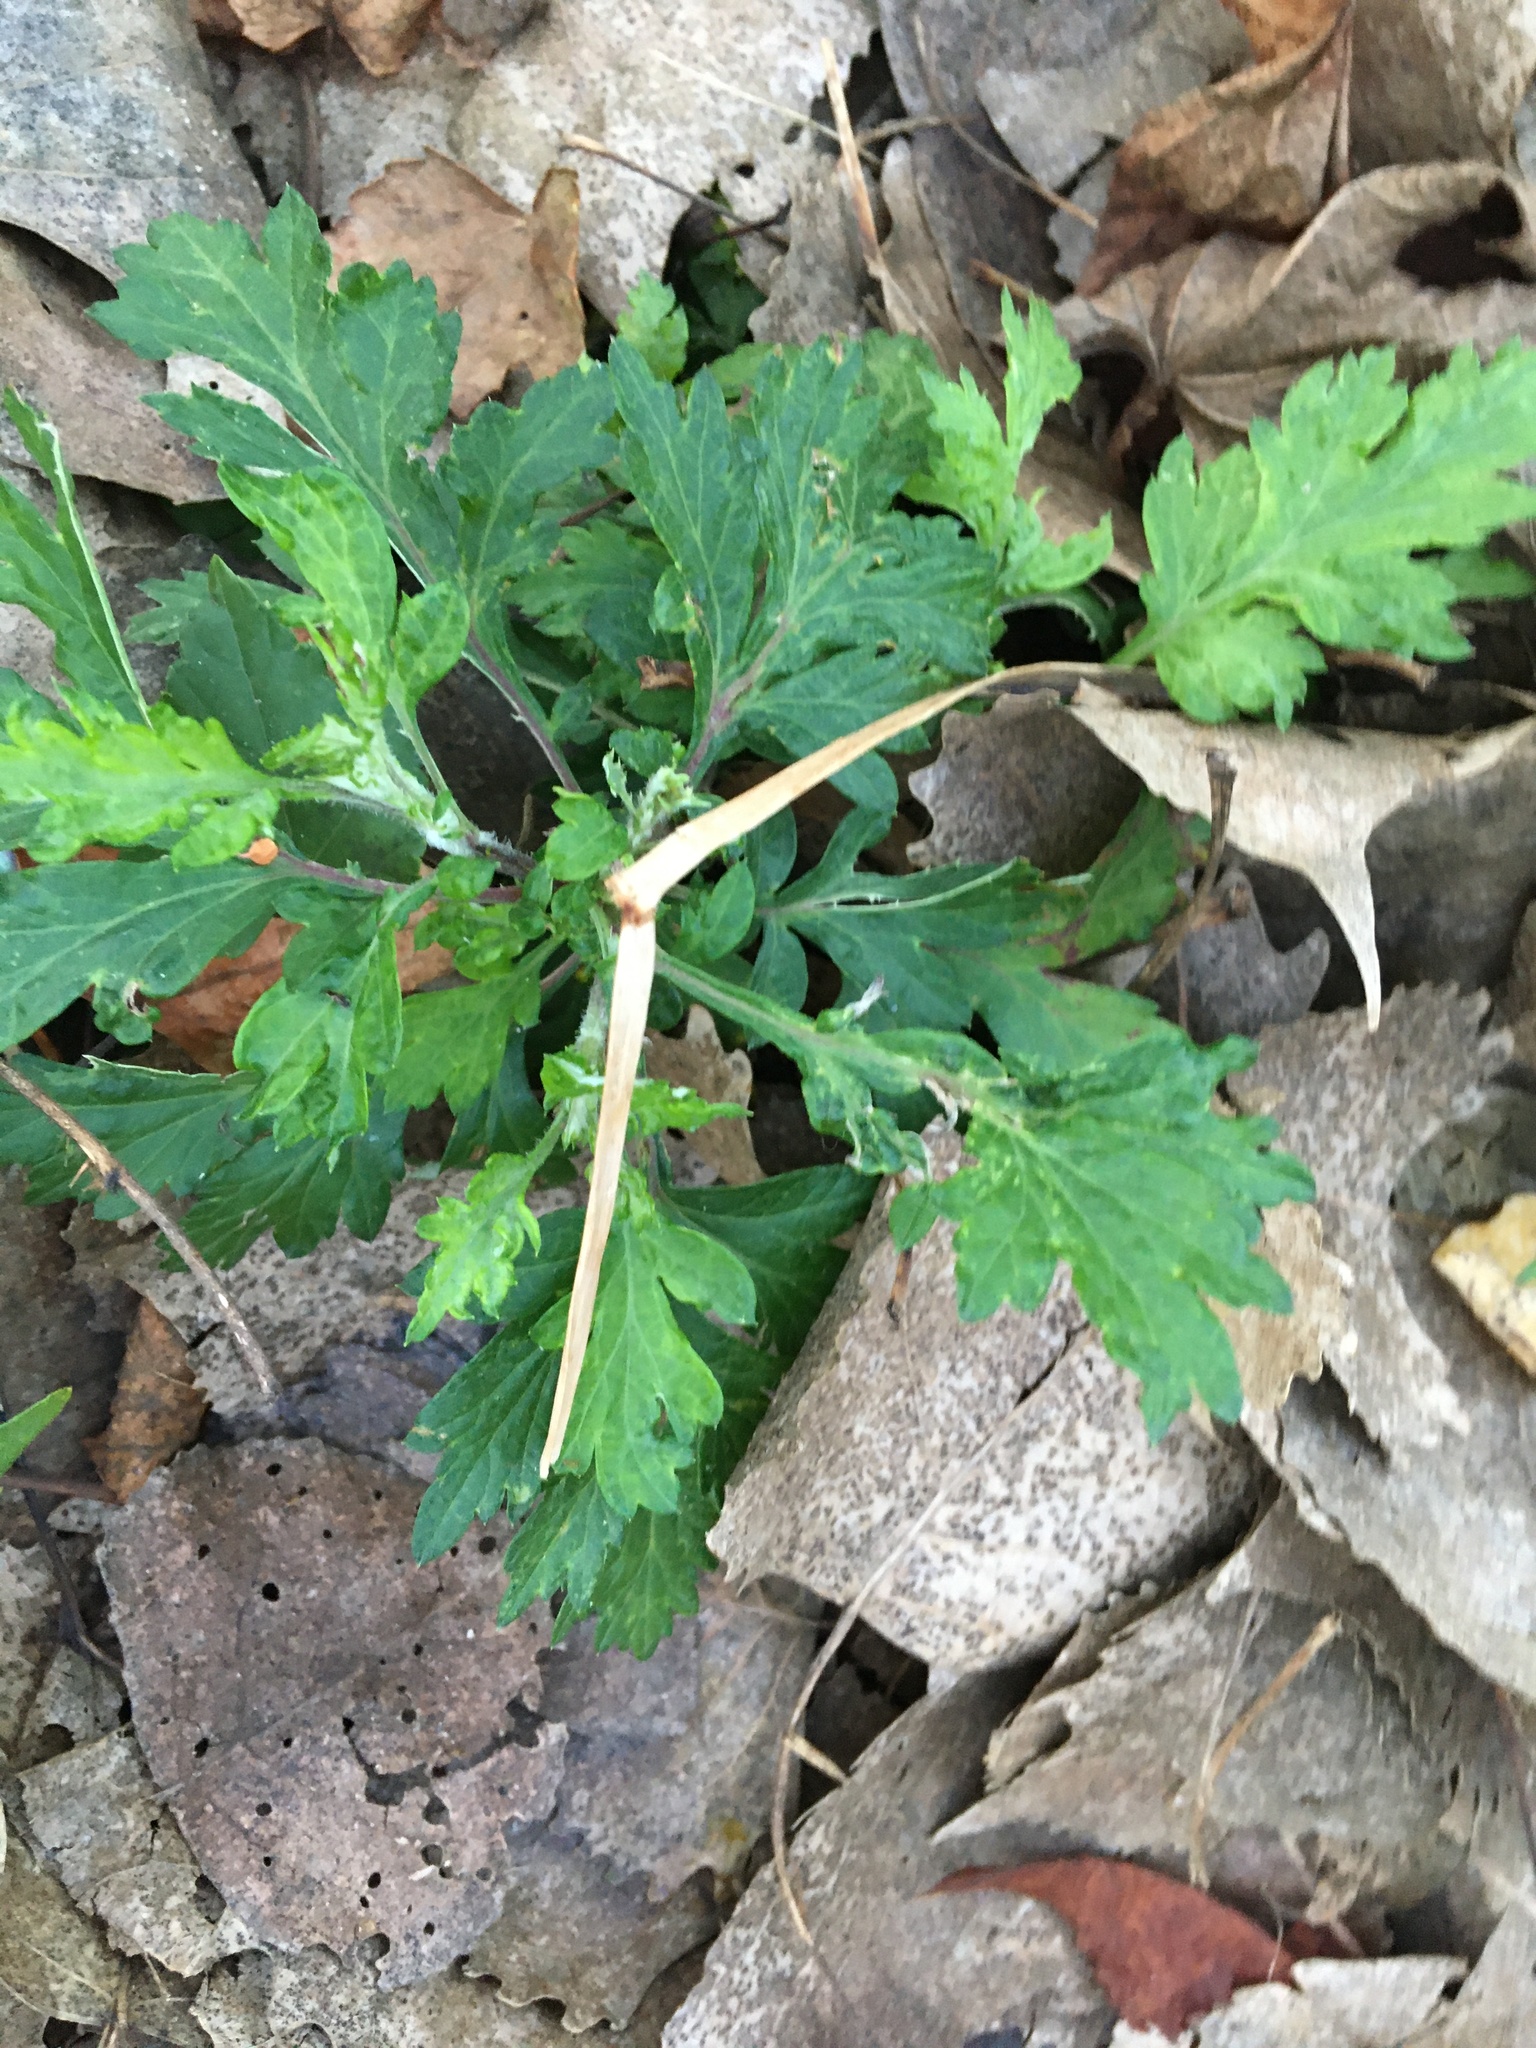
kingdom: Plantae
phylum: Tracheophyta
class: Magnoliopsida
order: Asterales
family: Asteraceae
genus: Artemisia
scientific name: Artemisia vulgaris
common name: Mugwort
